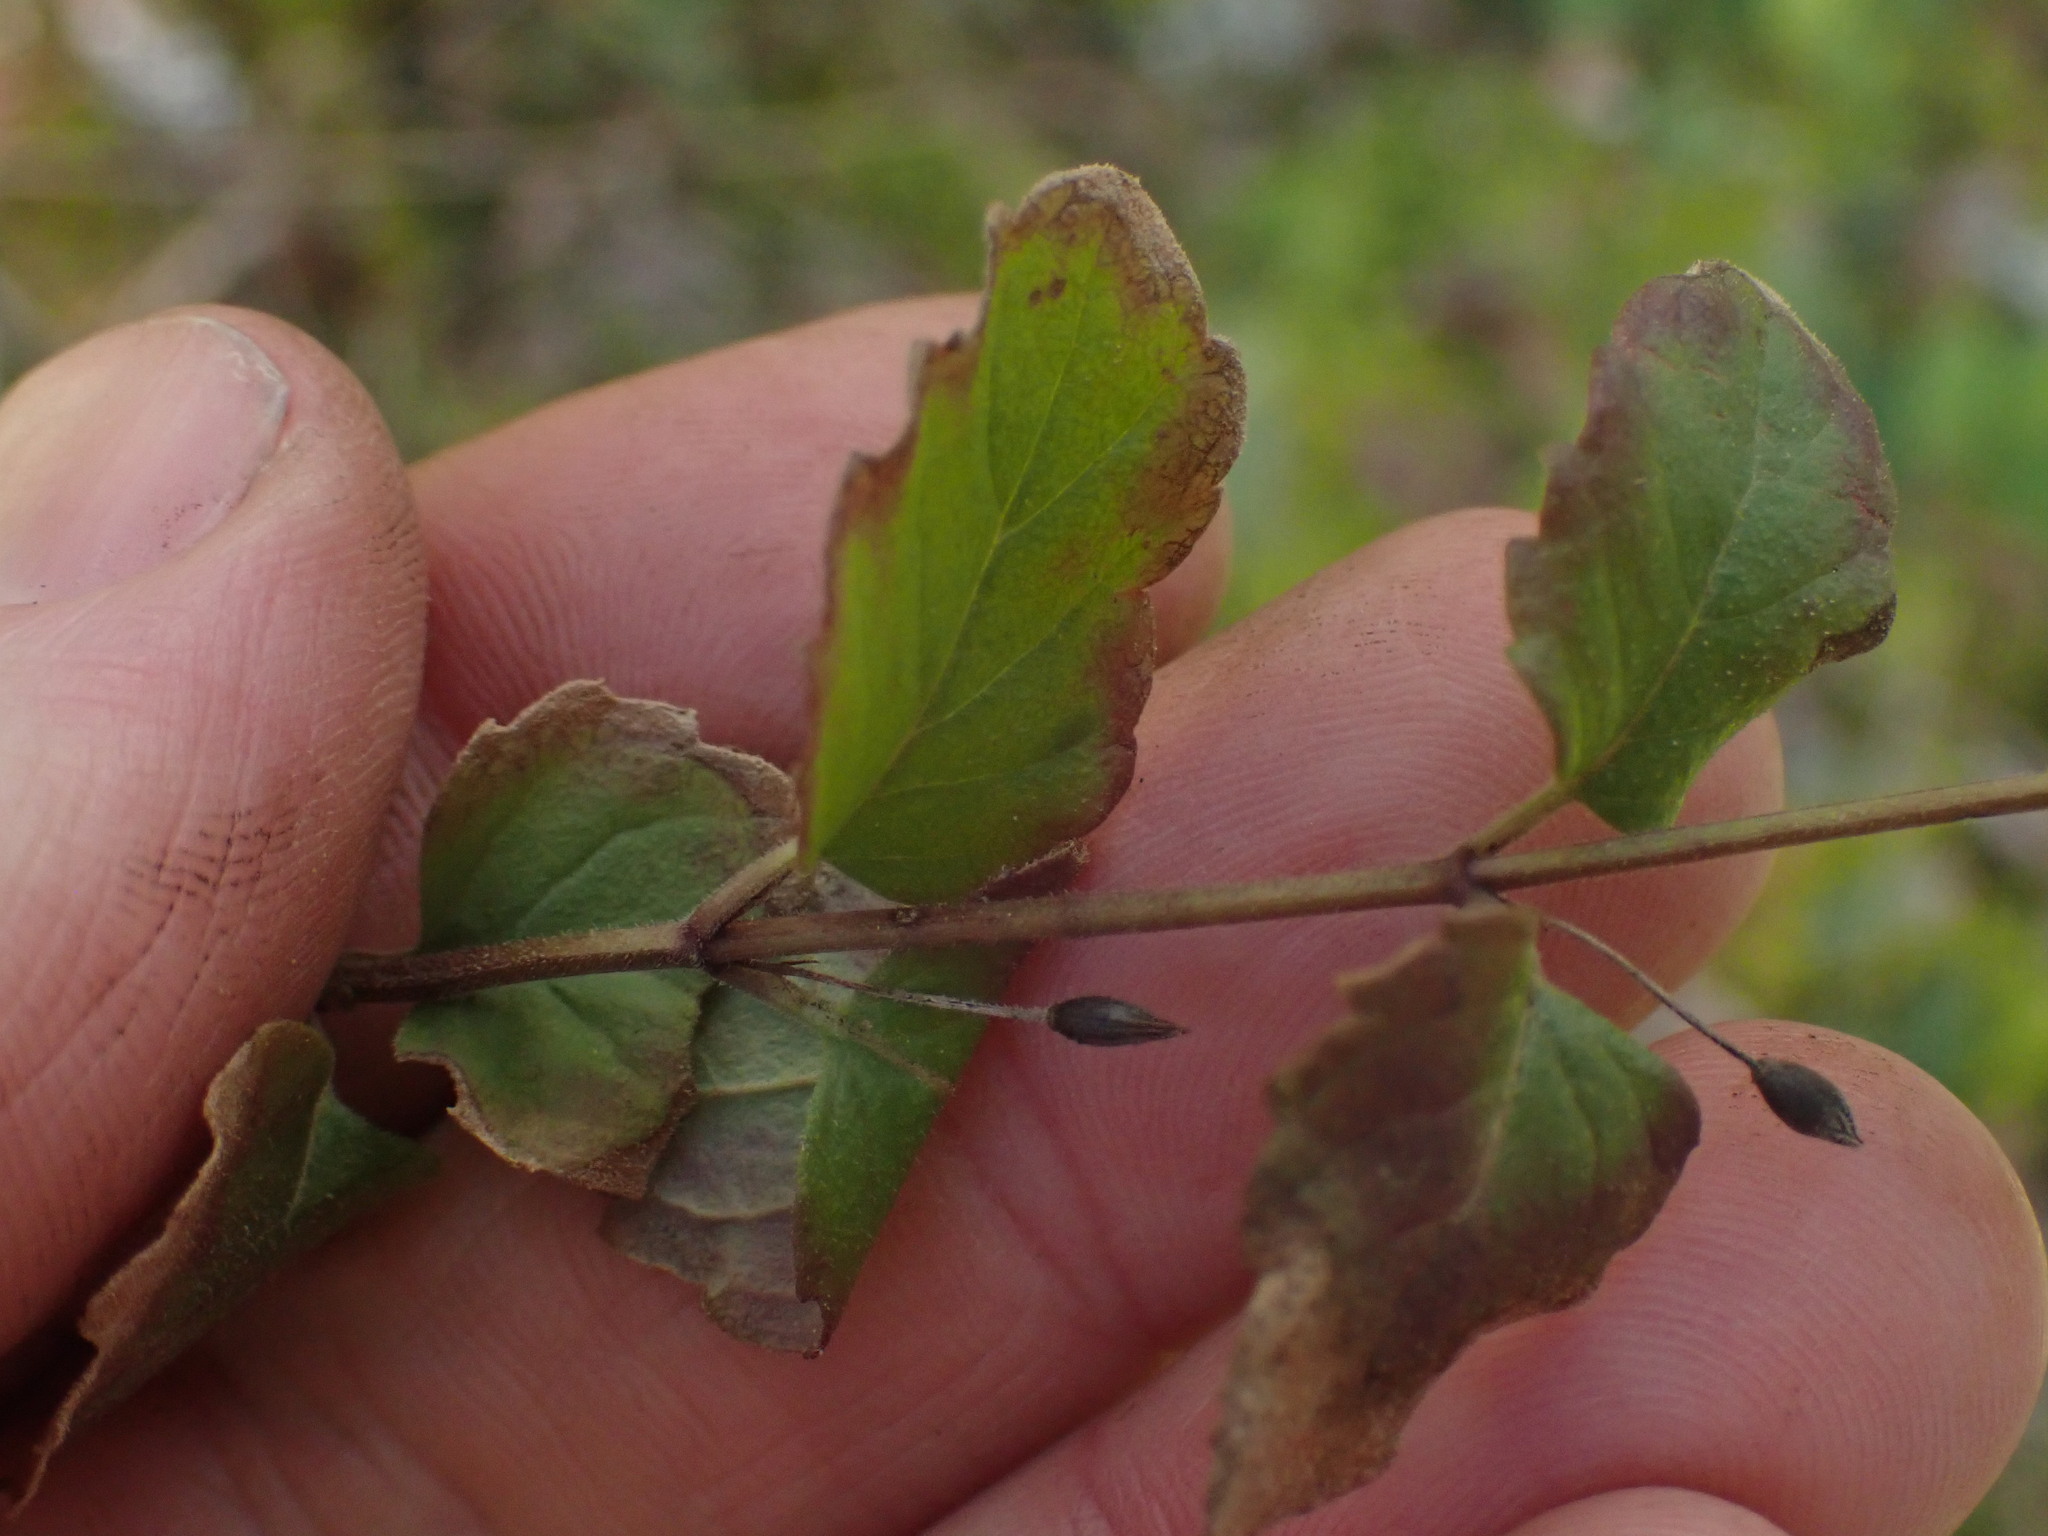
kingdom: Plantae
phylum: Tracheophyta
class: Magnoliopsida
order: Lamiales
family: Lamiaceae
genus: Micromeria
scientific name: Micromeria douglasii
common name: Yerba buena
